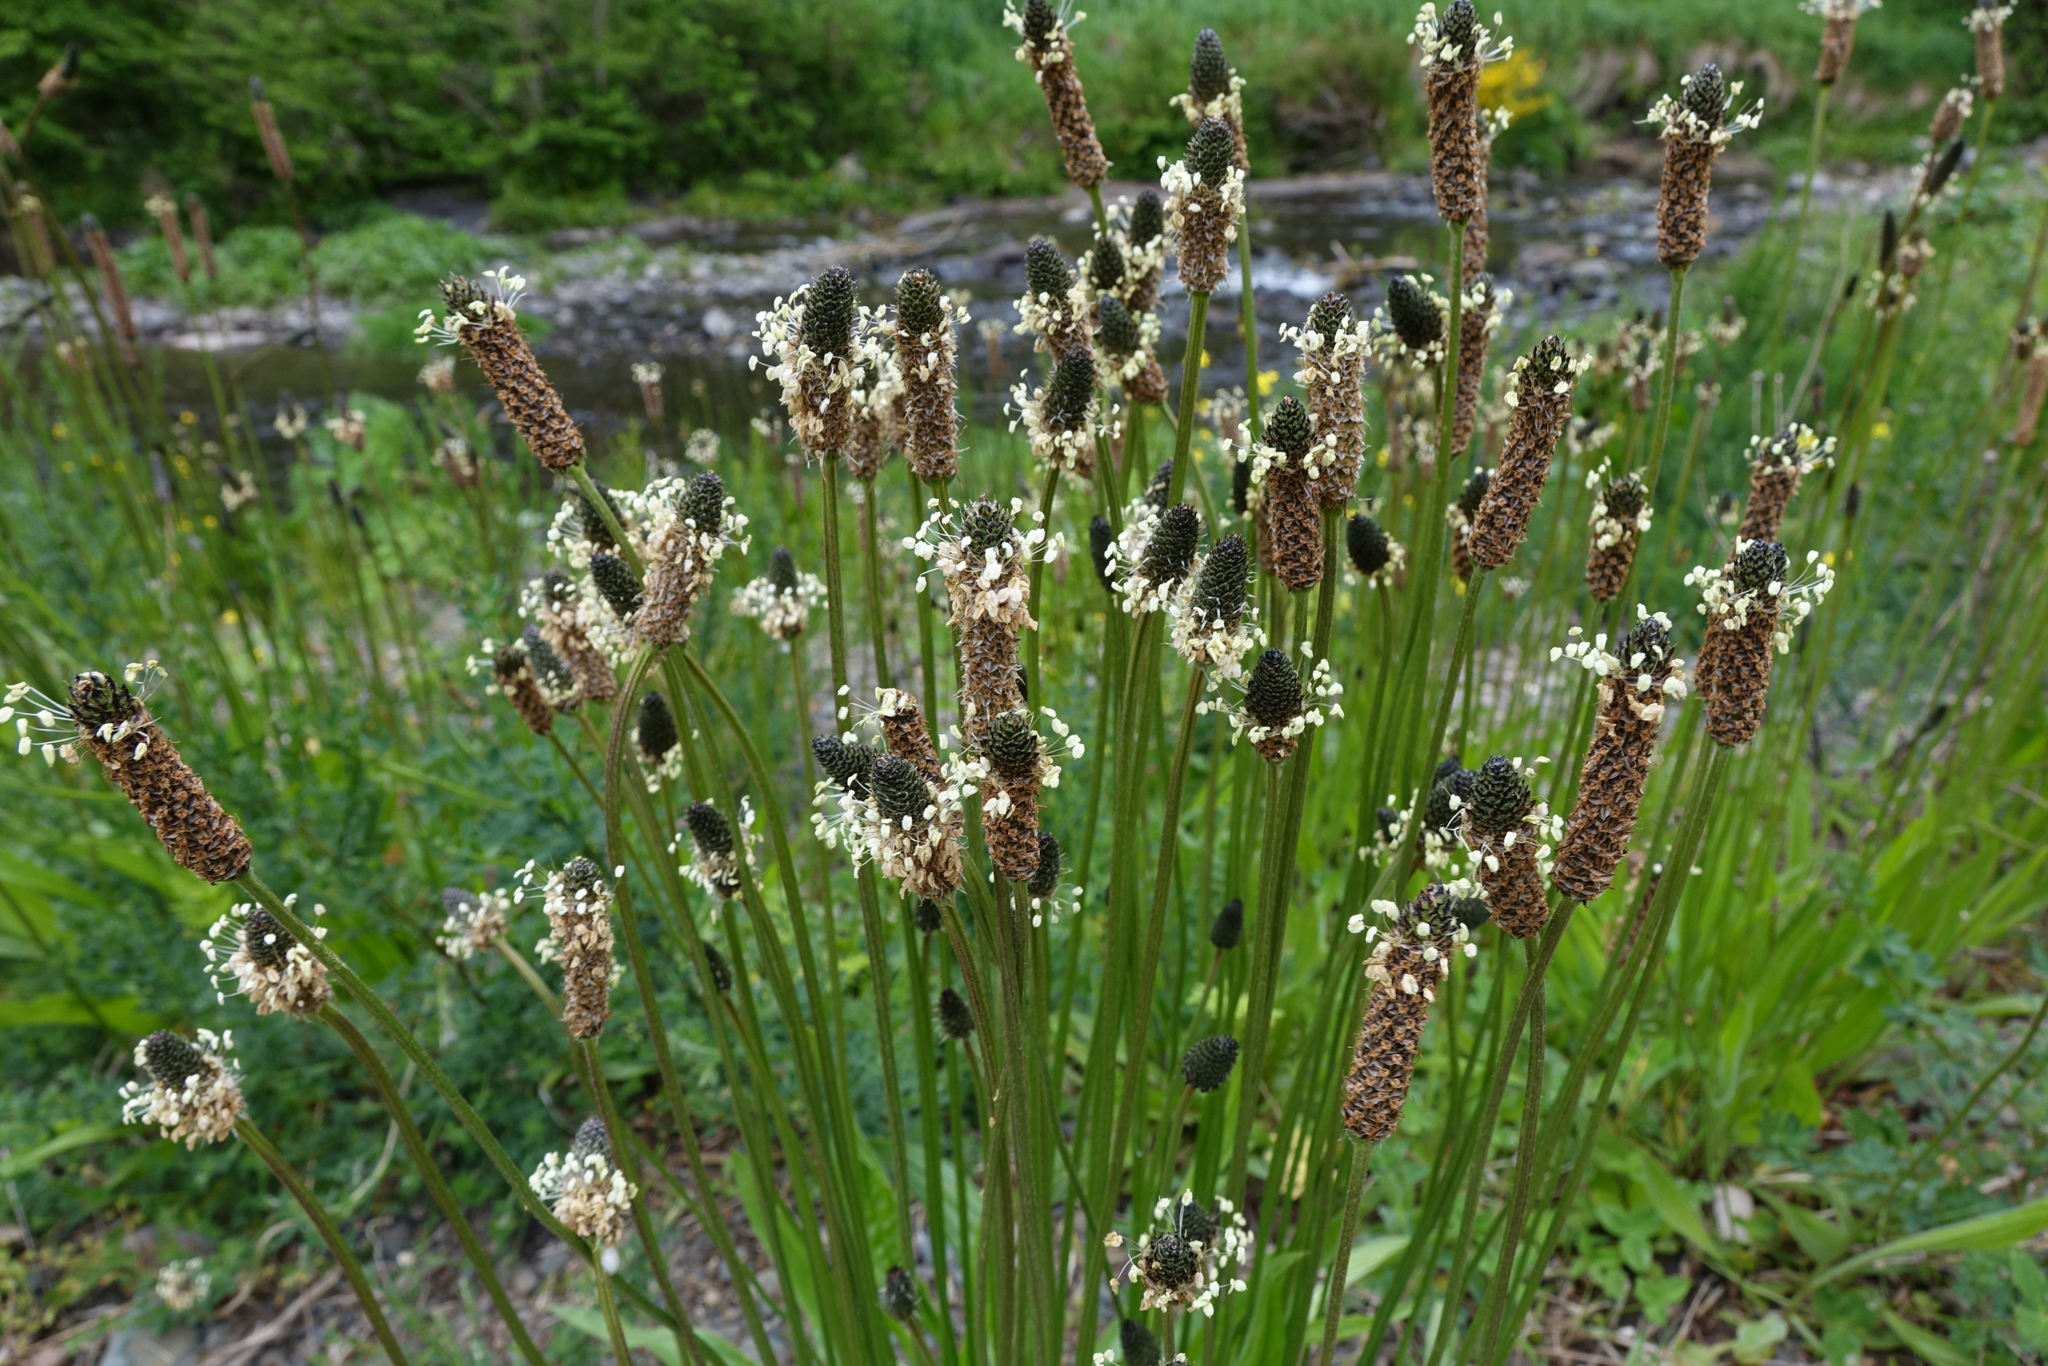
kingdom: Plantae
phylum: Tracheophyta
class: Magnoliopsida
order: Lamiales
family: Plantaginaceae
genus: Plantago
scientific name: Plantago lanceolata
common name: Ribwort plantain
